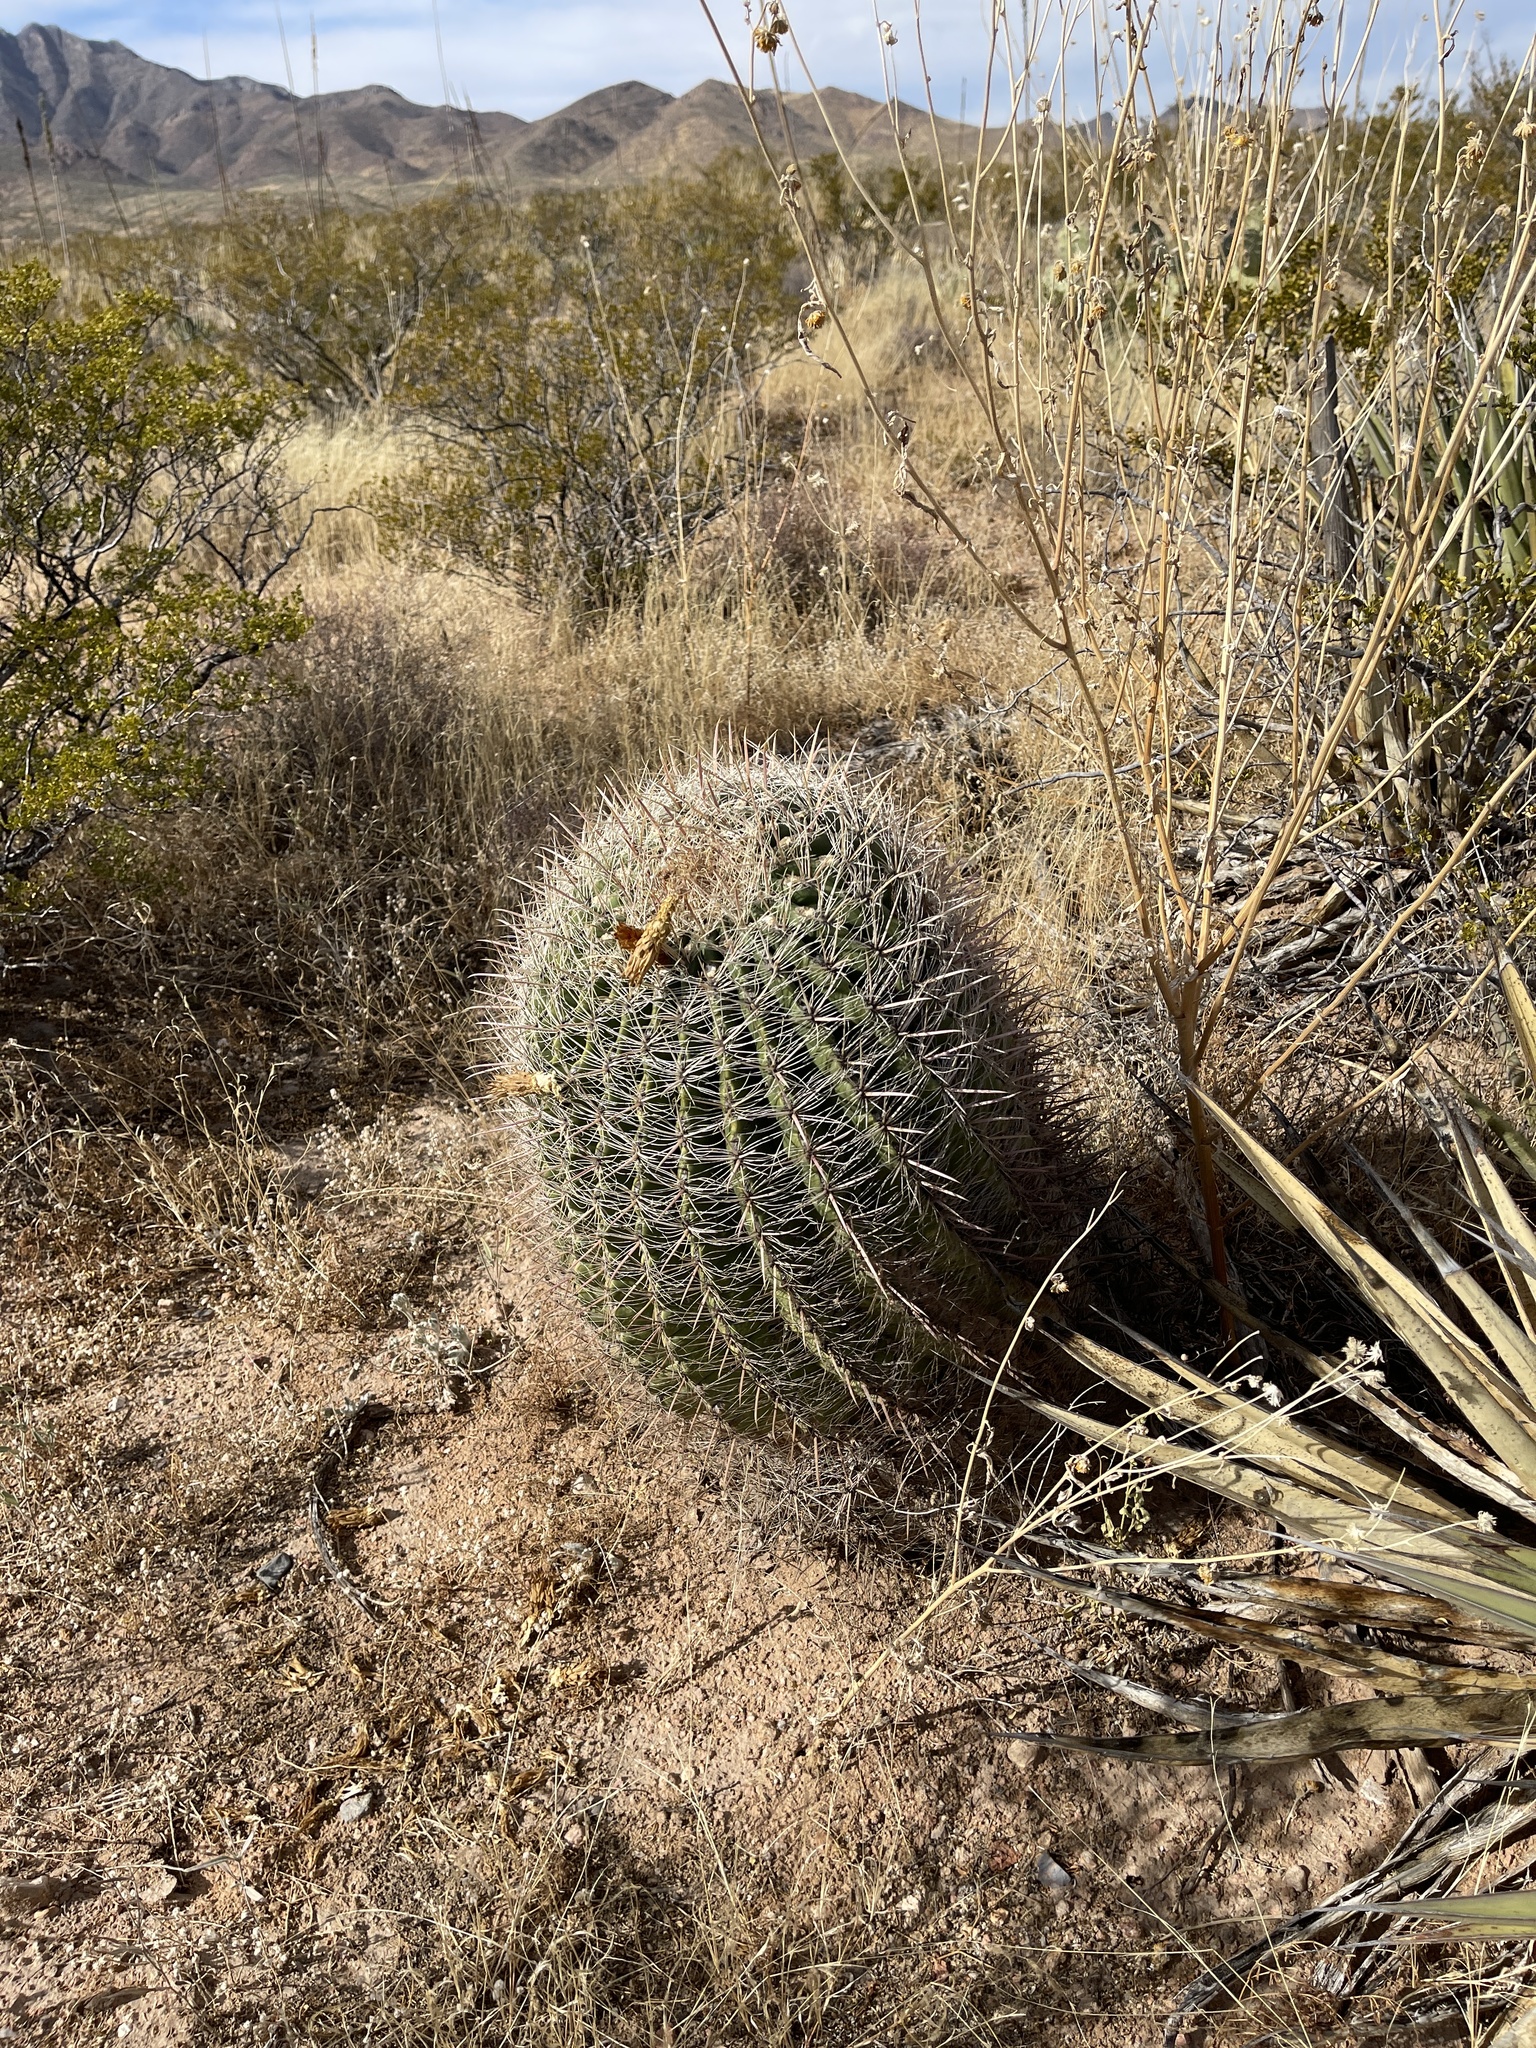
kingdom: Plantae
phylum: Tracheophyta
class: Magnoliopsida
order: Caryophyllales
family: Cactaceae
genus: Ferocactus
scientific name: Ferocactus wislizeni
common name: Candy barrel cactus
